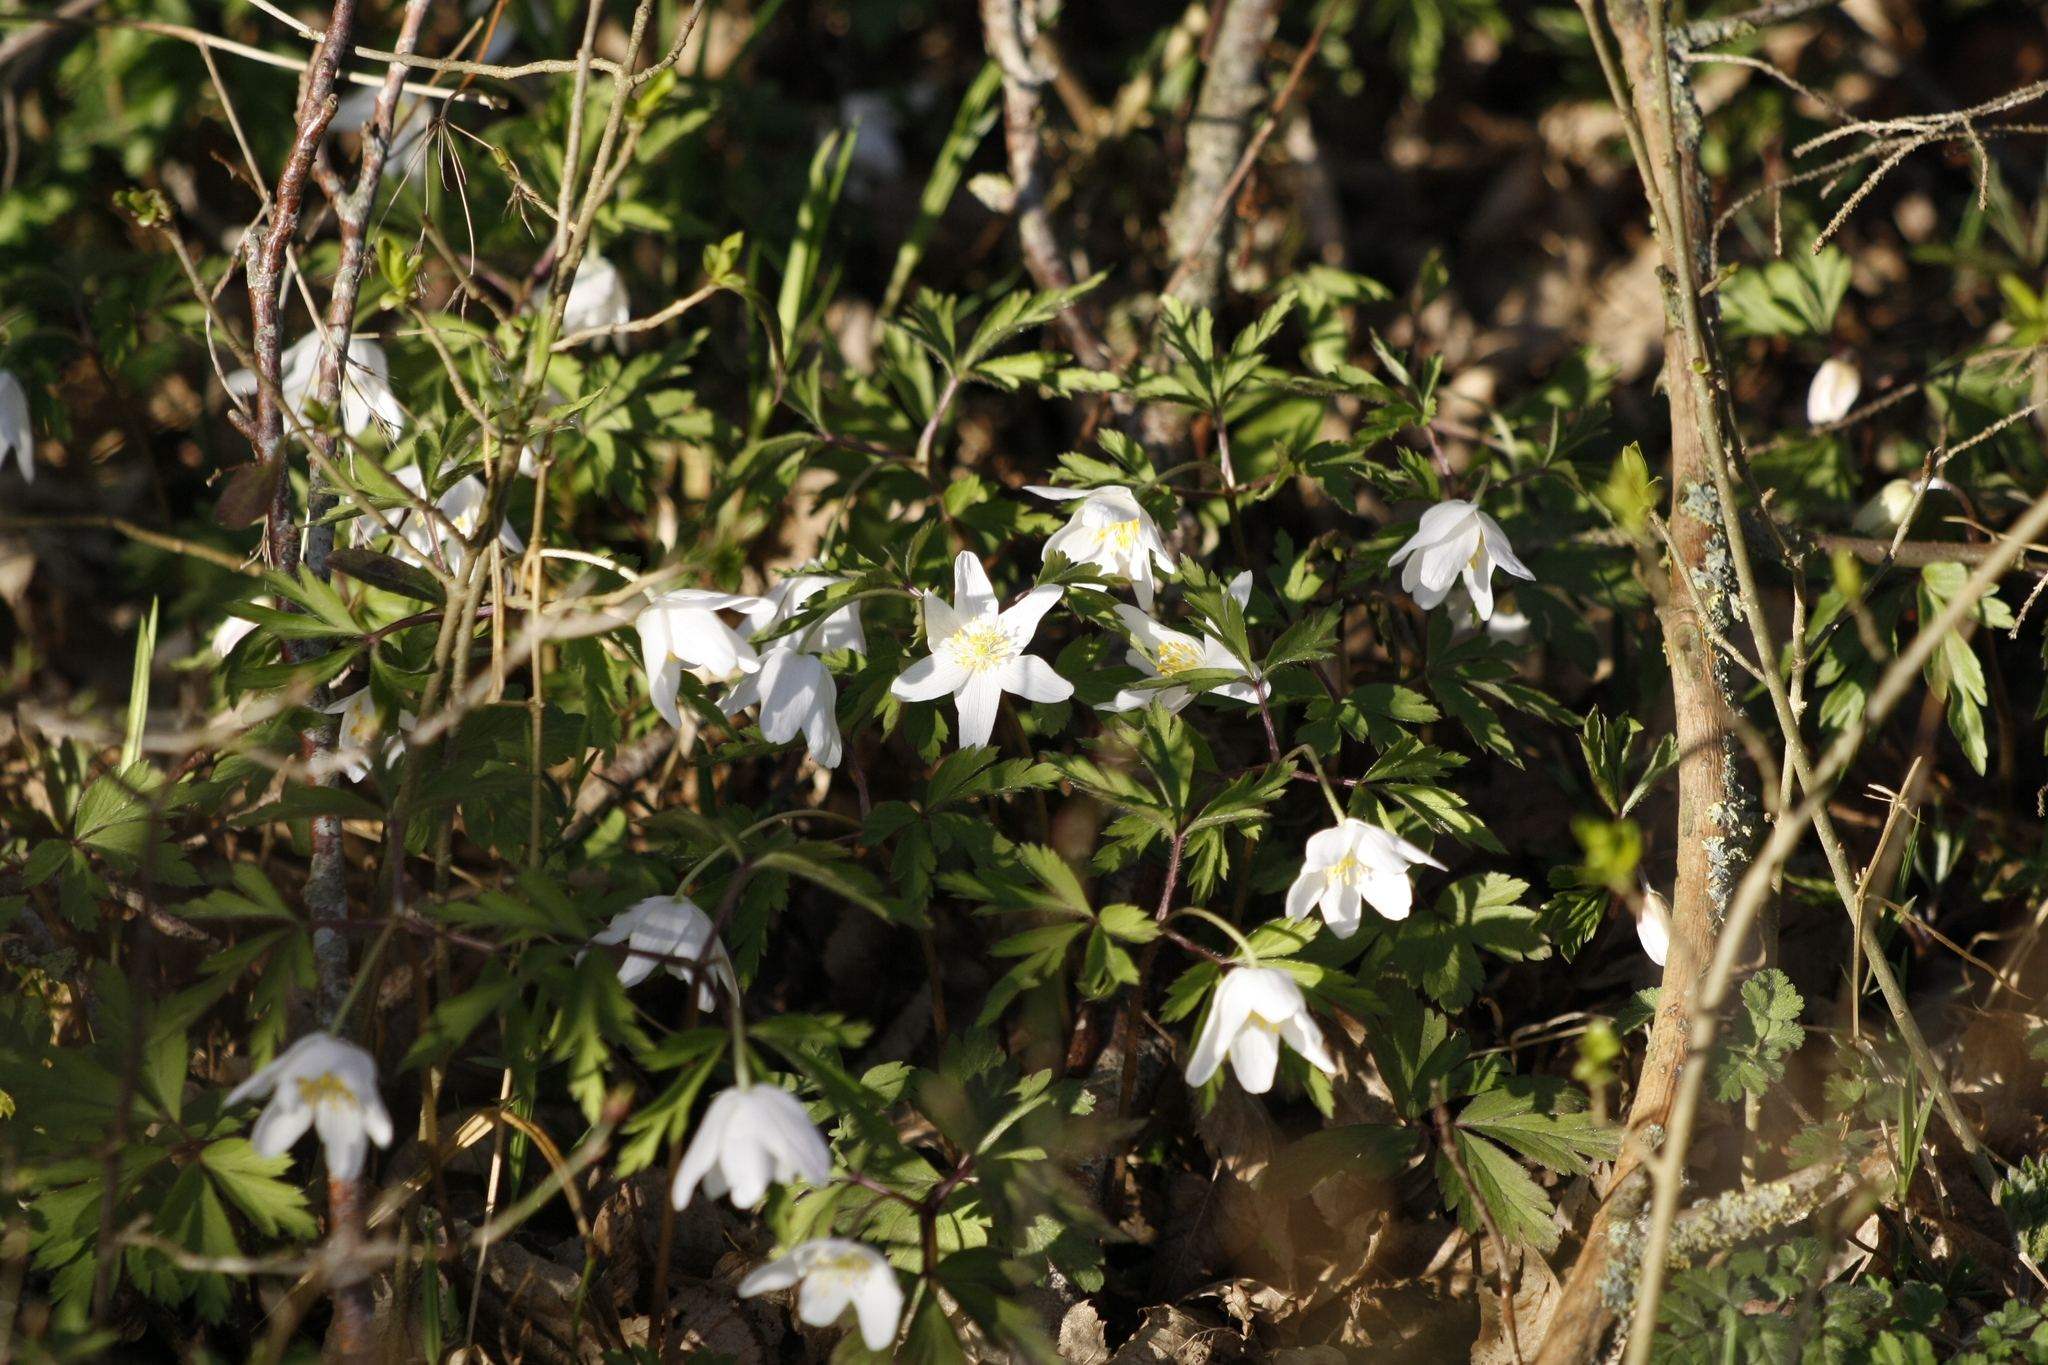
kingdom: Plantae
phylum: Tracheophyta
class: Magnoliopsida
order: Ranunculales
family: Ranunculaceae
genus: Anemone
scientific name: Anemone nemorosa
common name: Wood anemone
